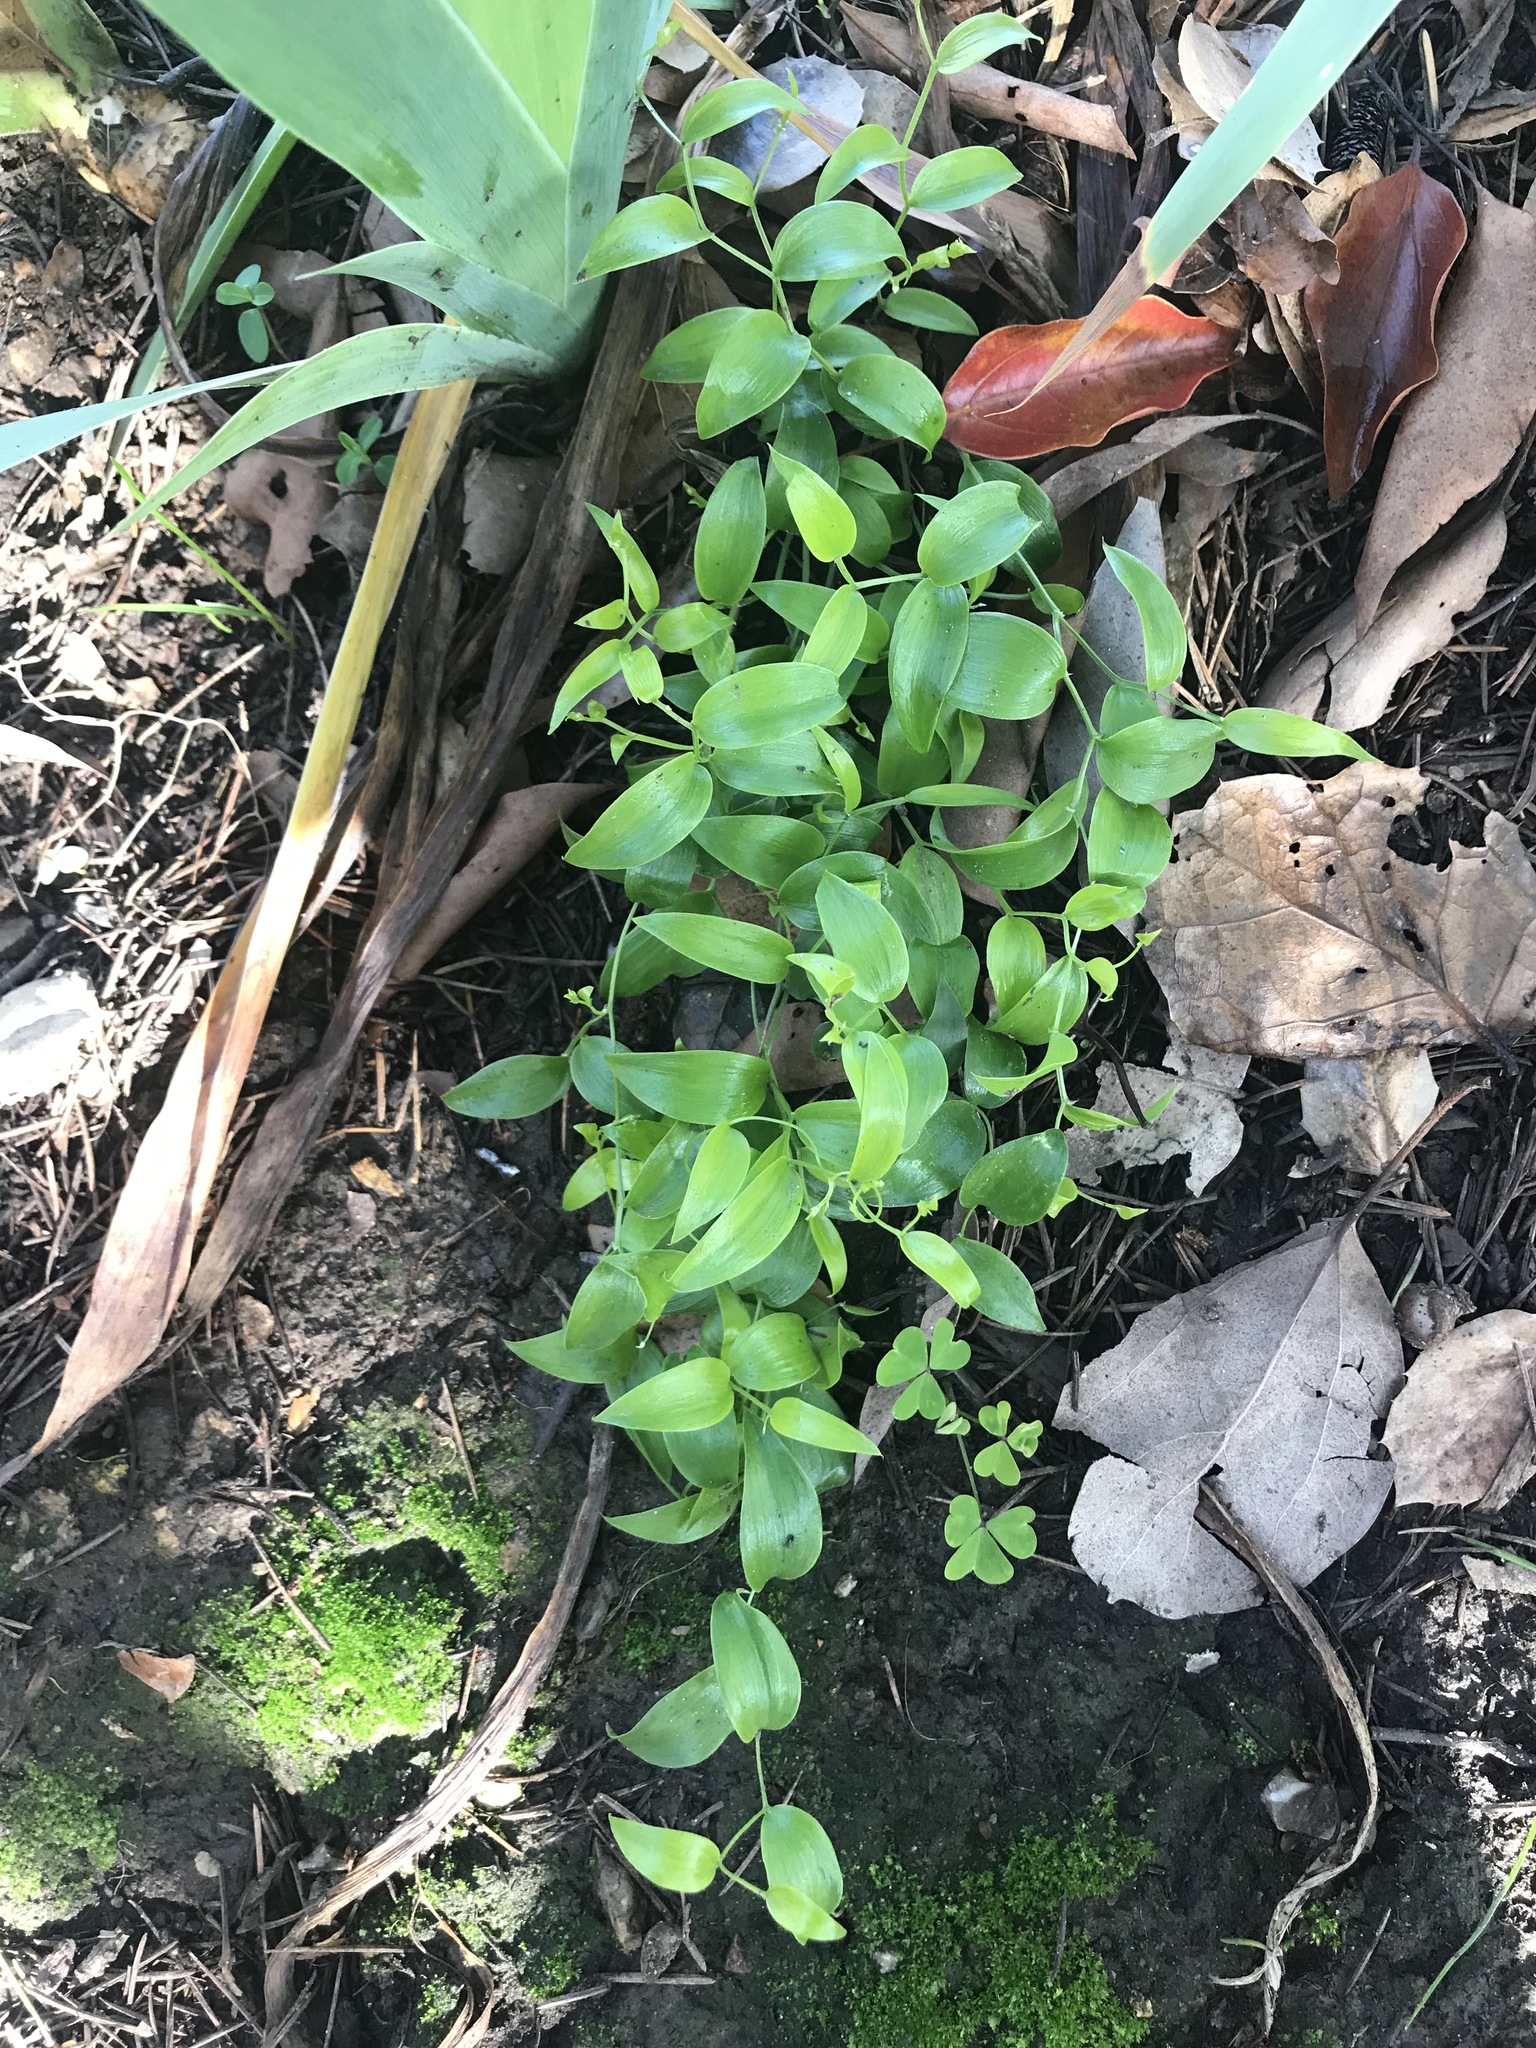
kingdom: Plantae
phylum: Tracheophyta
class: Liliopsida
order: Asparagales
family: Asparagaceae
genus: Asparagus
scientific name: Asparagus asparagoides
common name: African asparagus fern
